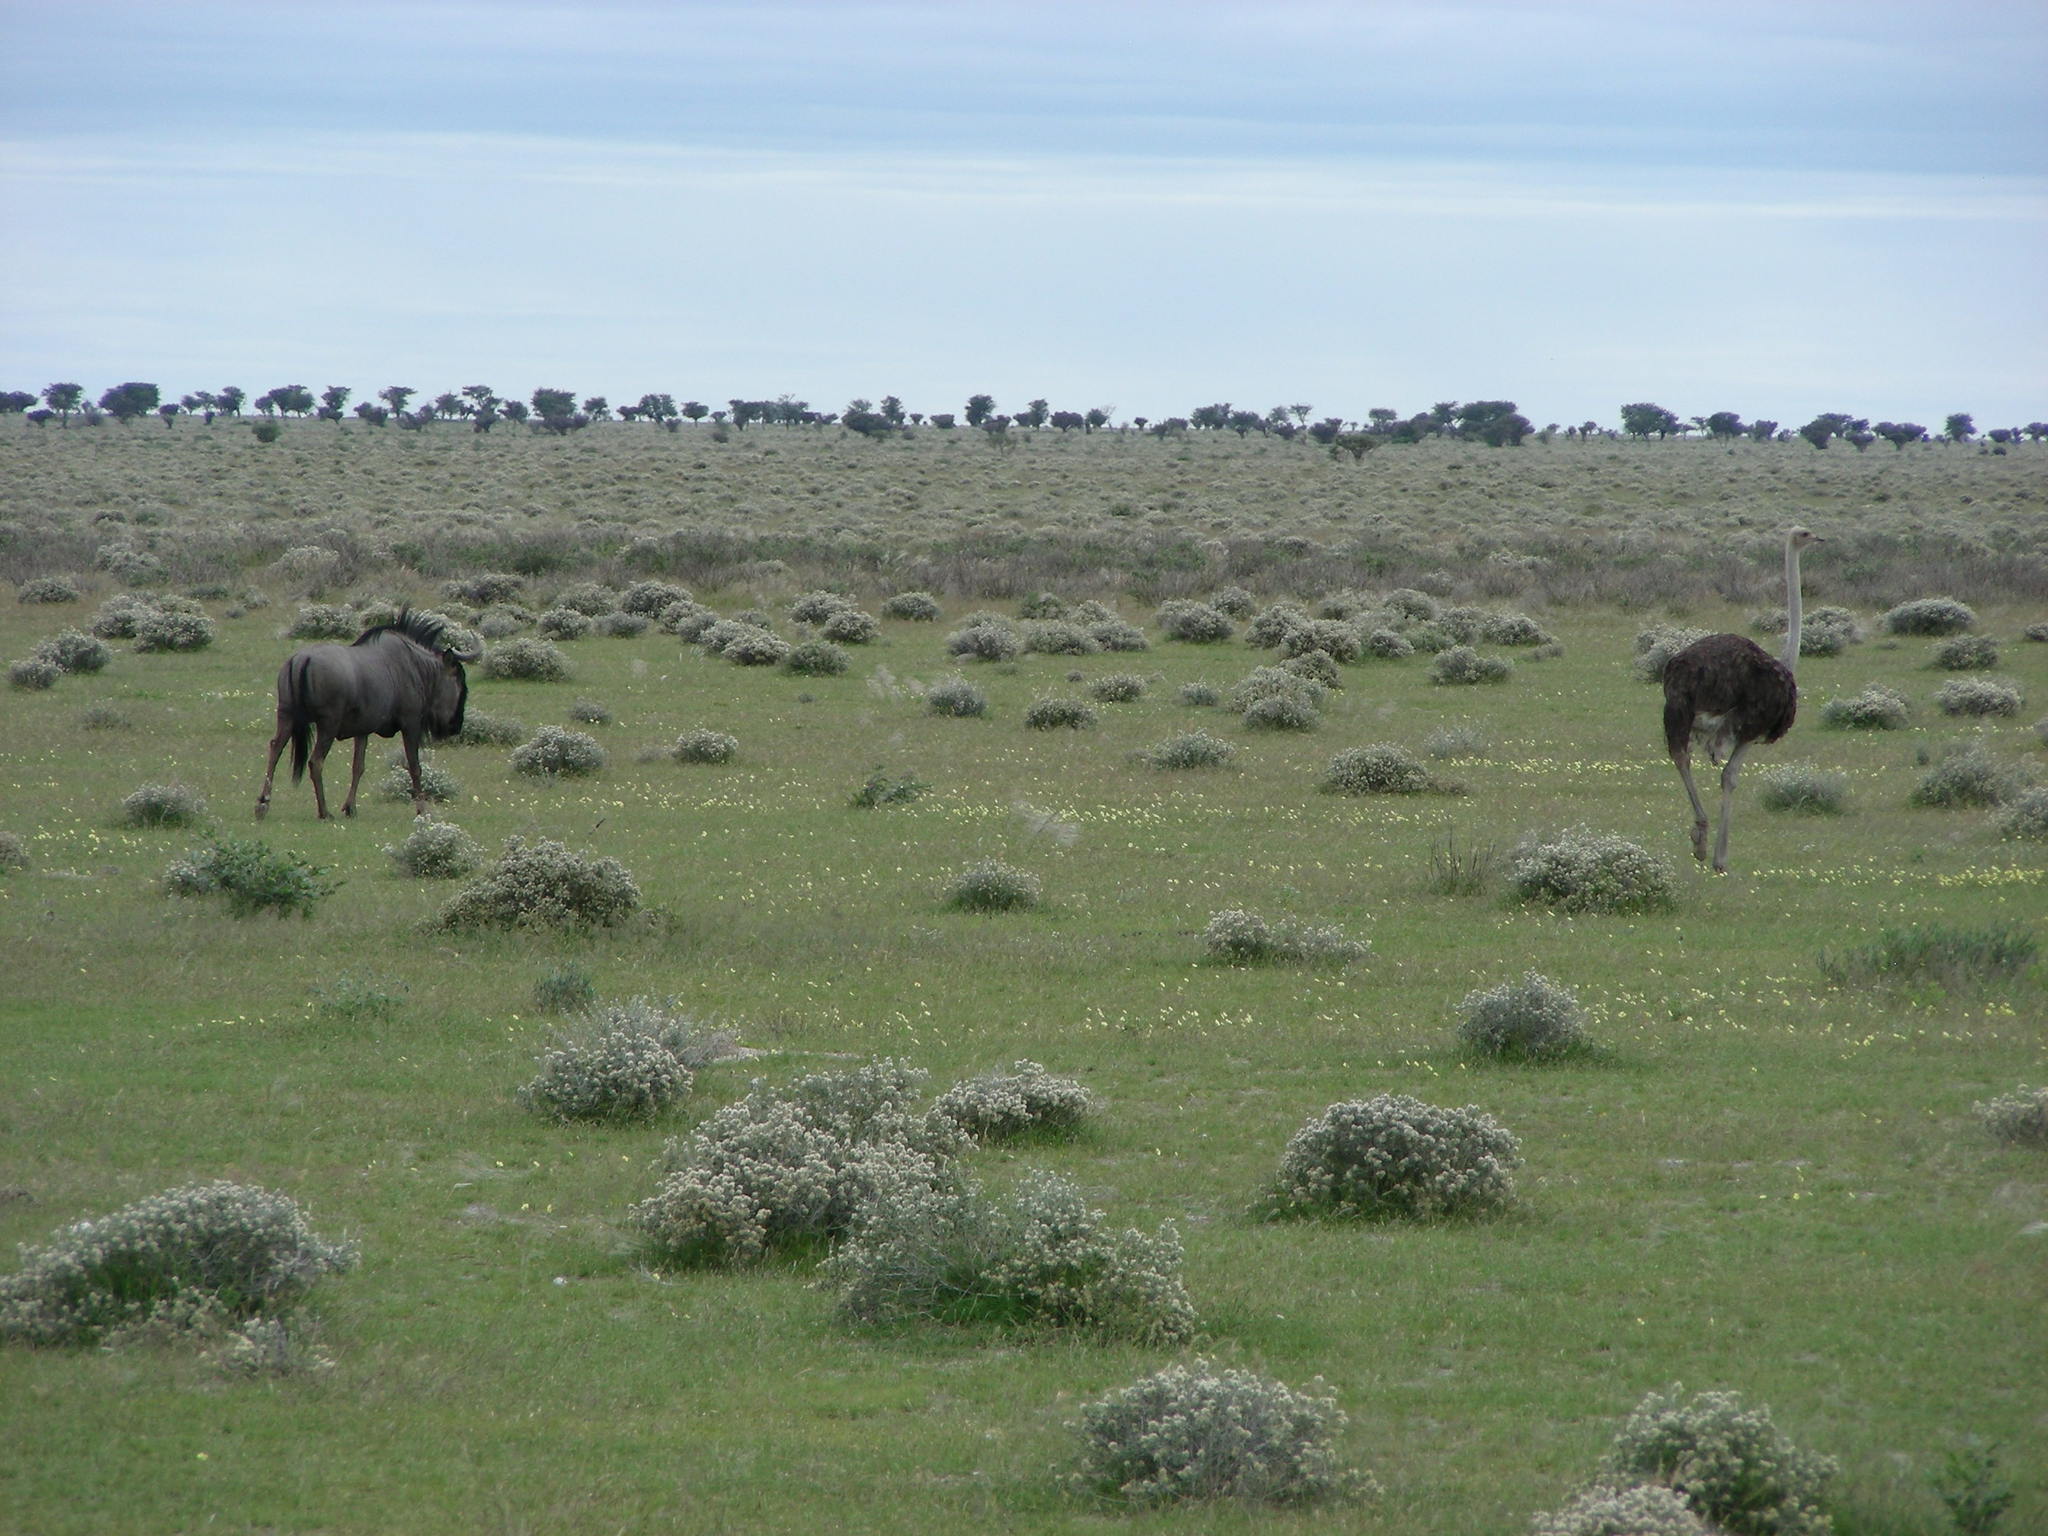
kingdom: Animalia
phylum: Chordata
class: Aves
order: Struthioniformes
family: Struthionidae
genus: Struthio
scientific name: Struthio camelus
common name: Common ostrich
